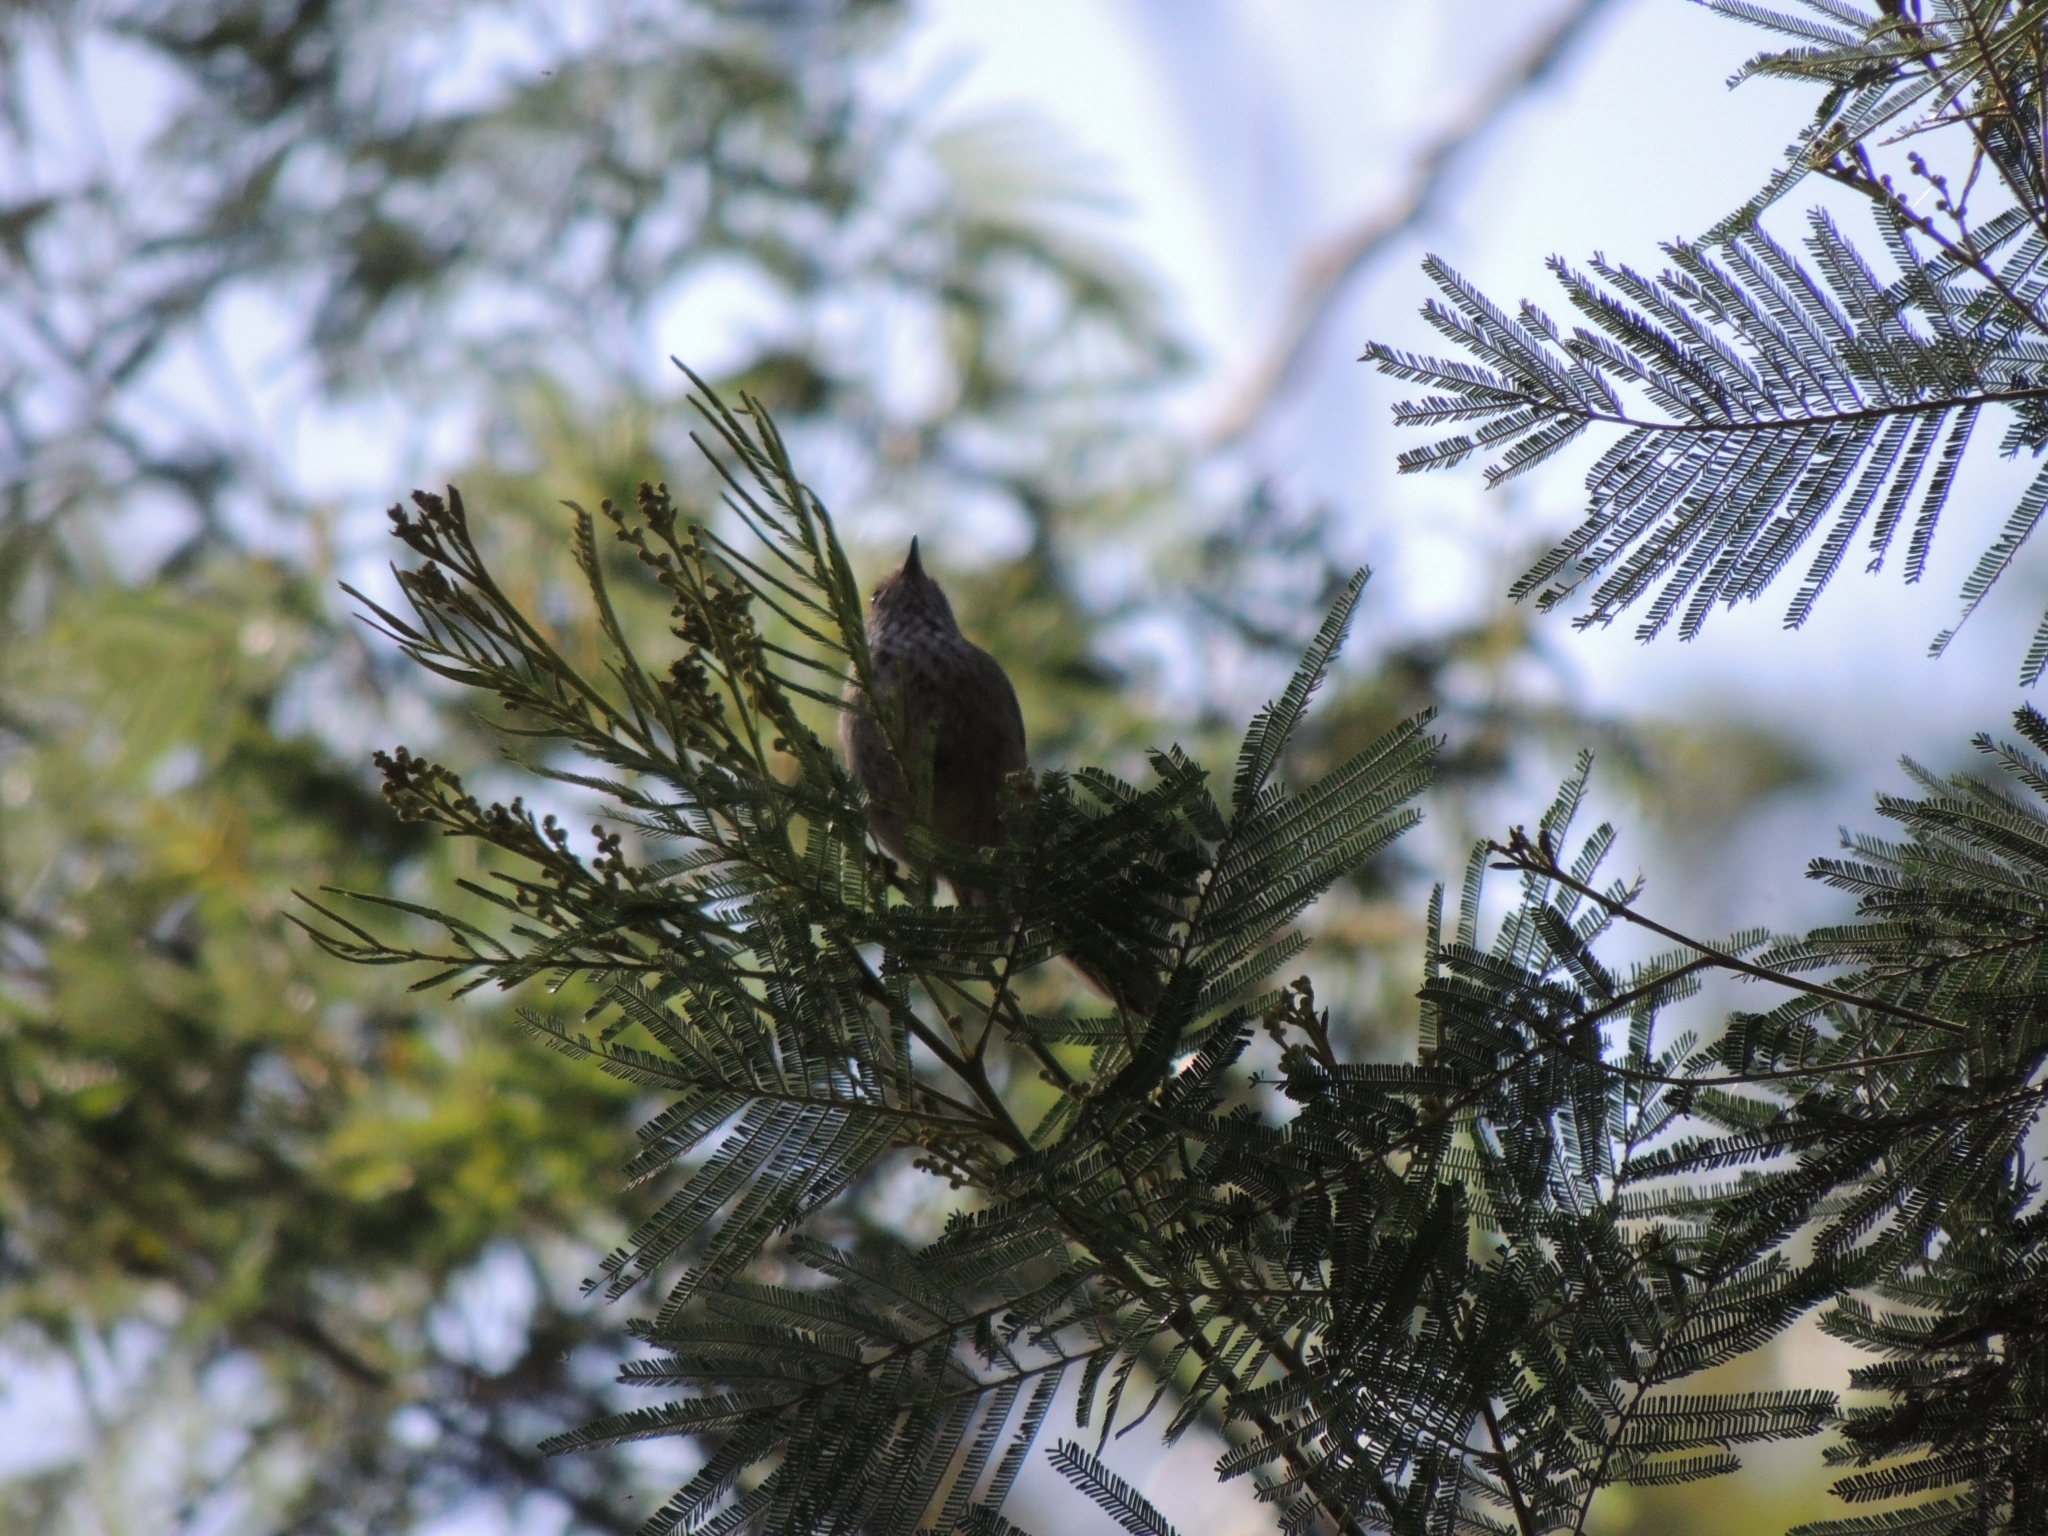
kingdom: Animalia
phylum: Chordata
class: Aves
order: Passeriformes
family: Acanthizidae
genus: Acanthiza
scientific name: Acanthiza pusilla
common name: Brown thornbill
